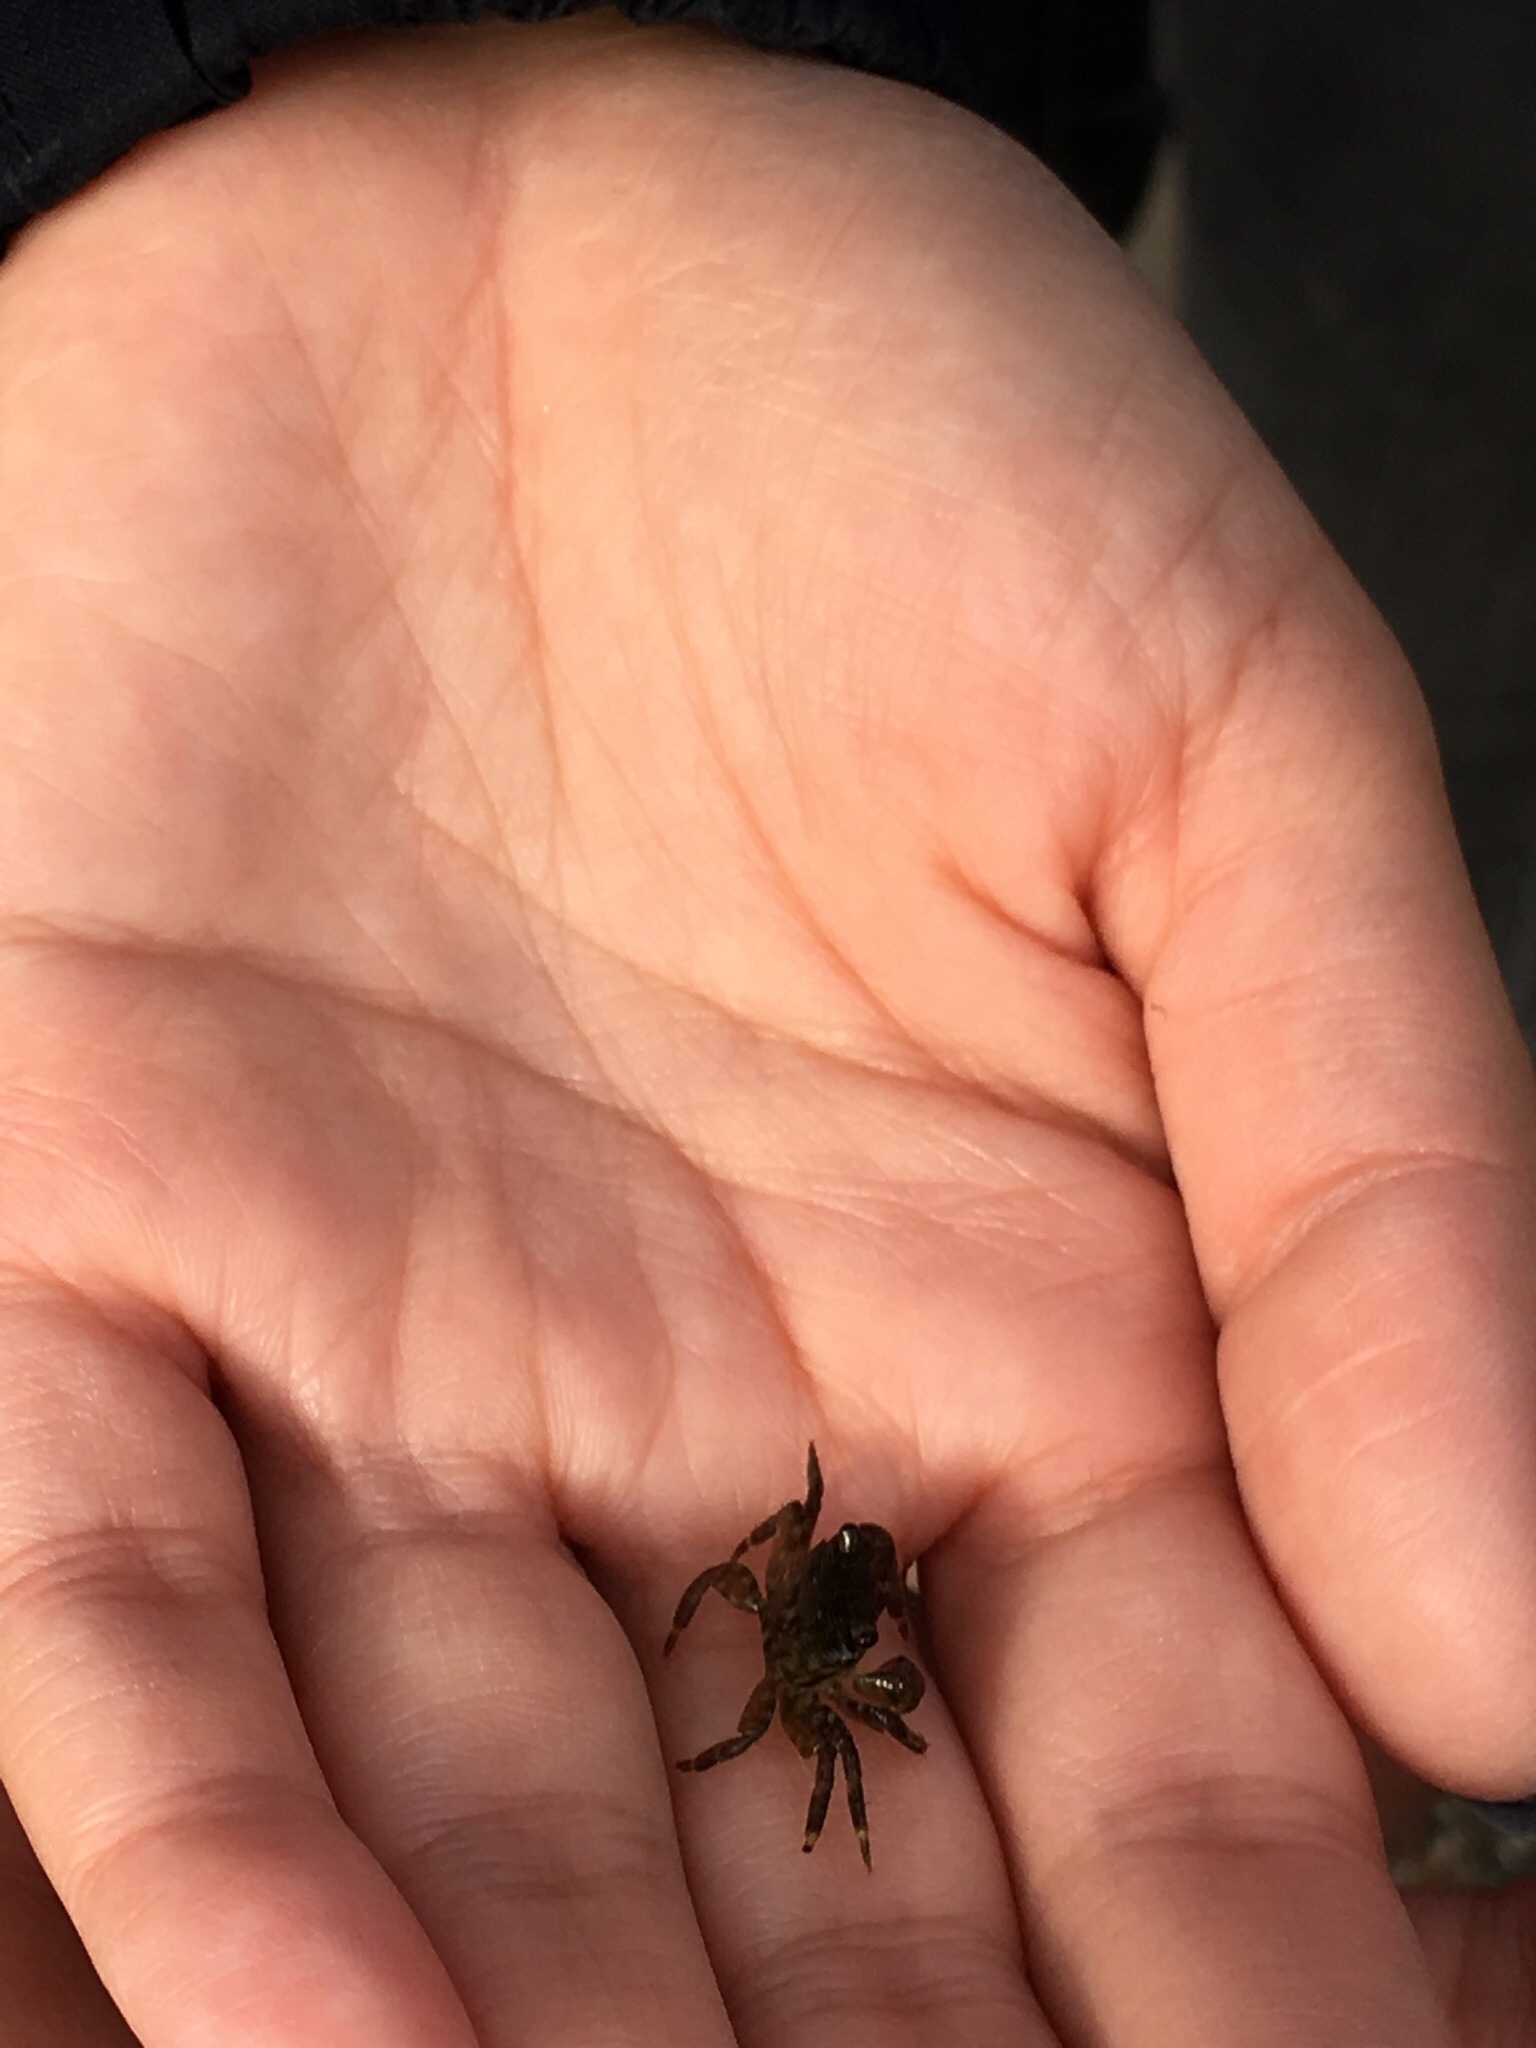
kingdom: Animalia
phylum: Arthropoda
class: Malacostraca
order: Decapoda
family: Grapsidae
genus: Pachygrapsus
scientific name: Pachygrapsus crassipes
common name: Striped shore crab
